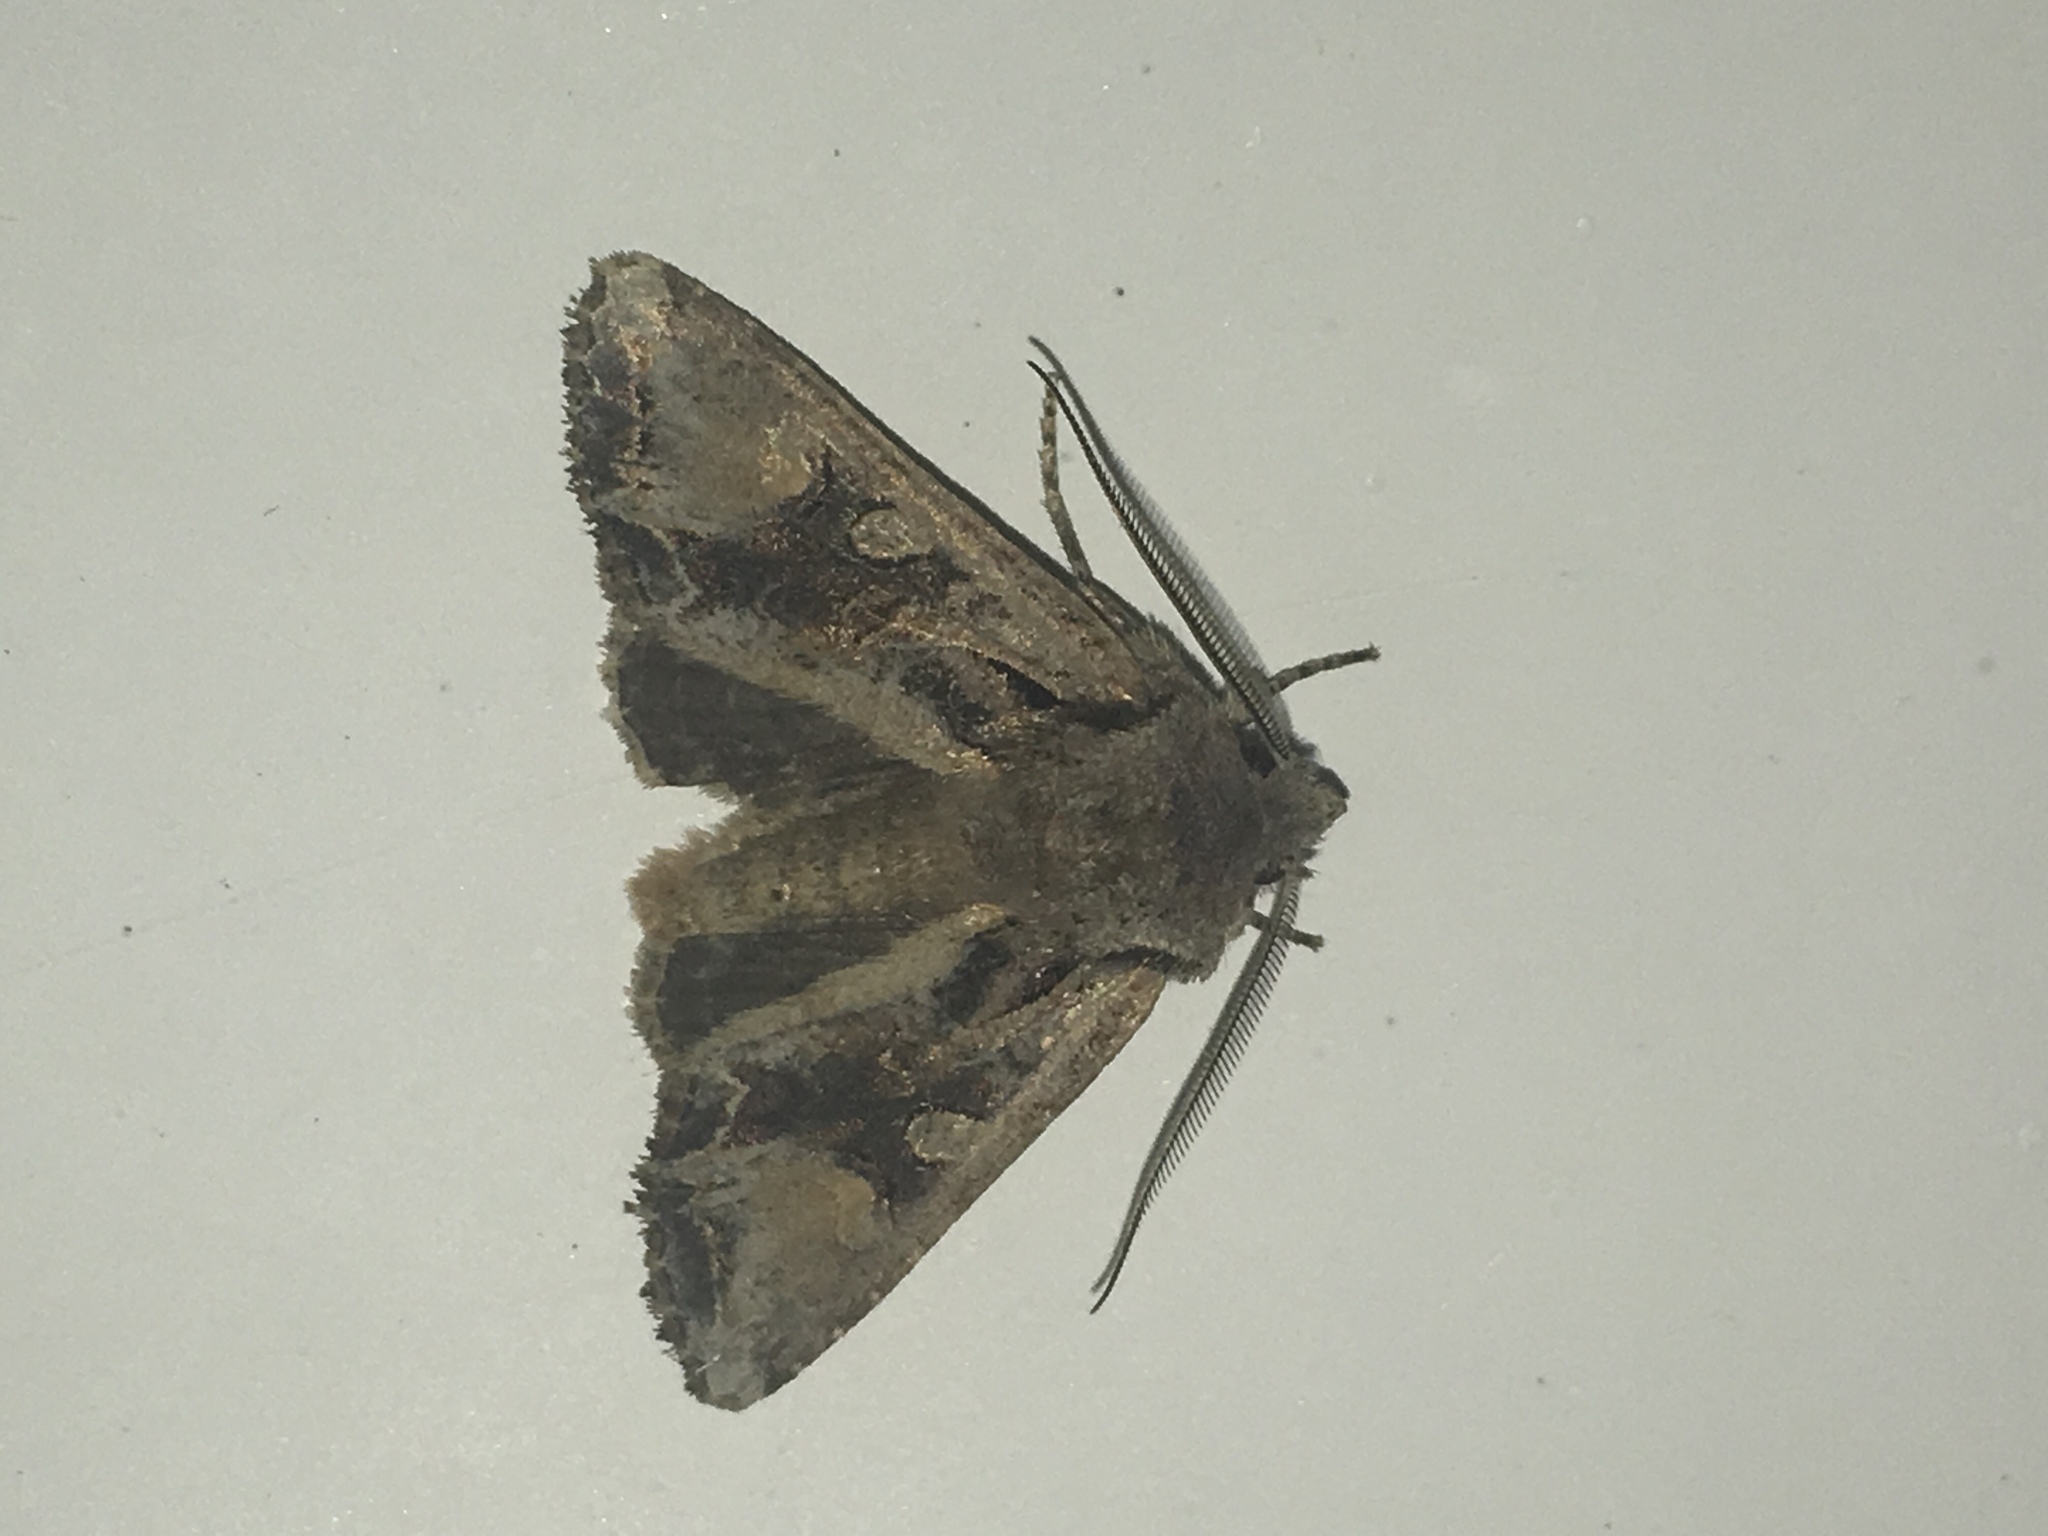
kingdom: Animalia
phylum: Arthropoda
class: Insecta
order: Lepidoptera
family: Noctuidae
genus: Ichneutica
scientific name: Ichneutica
